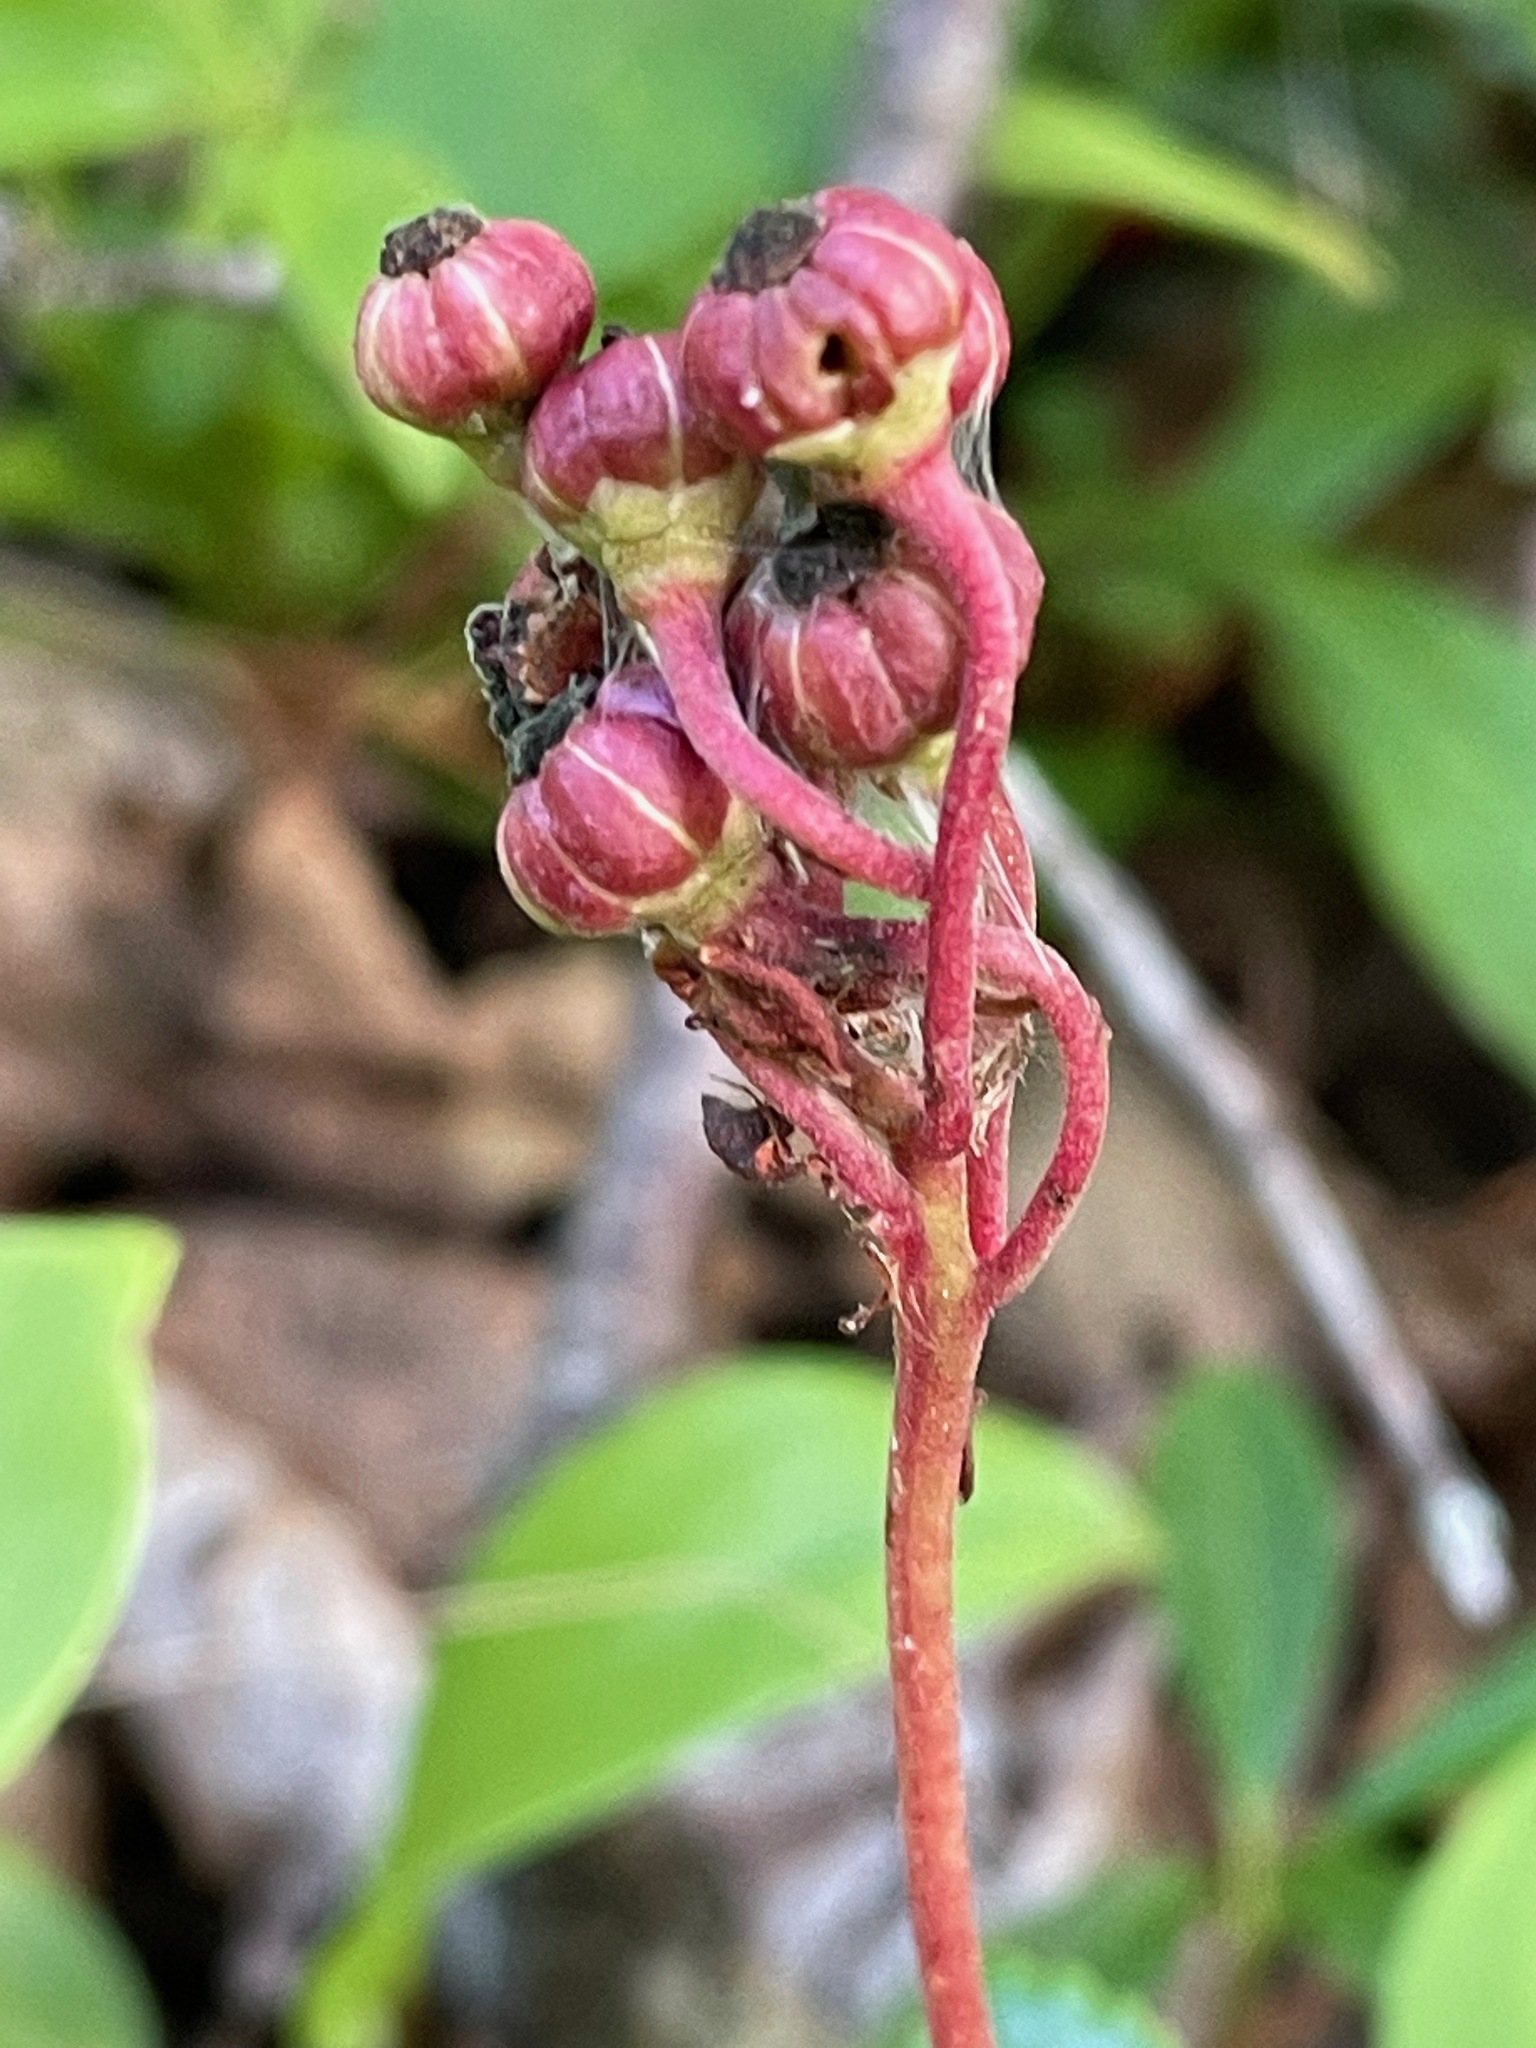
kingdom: Plantae
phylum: Tracheophyta
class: Magnoliopsida
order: Ericales
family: Ericaceae
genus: Chimaphila
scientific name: Chimaphila umbellata
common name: Pipsissewa
